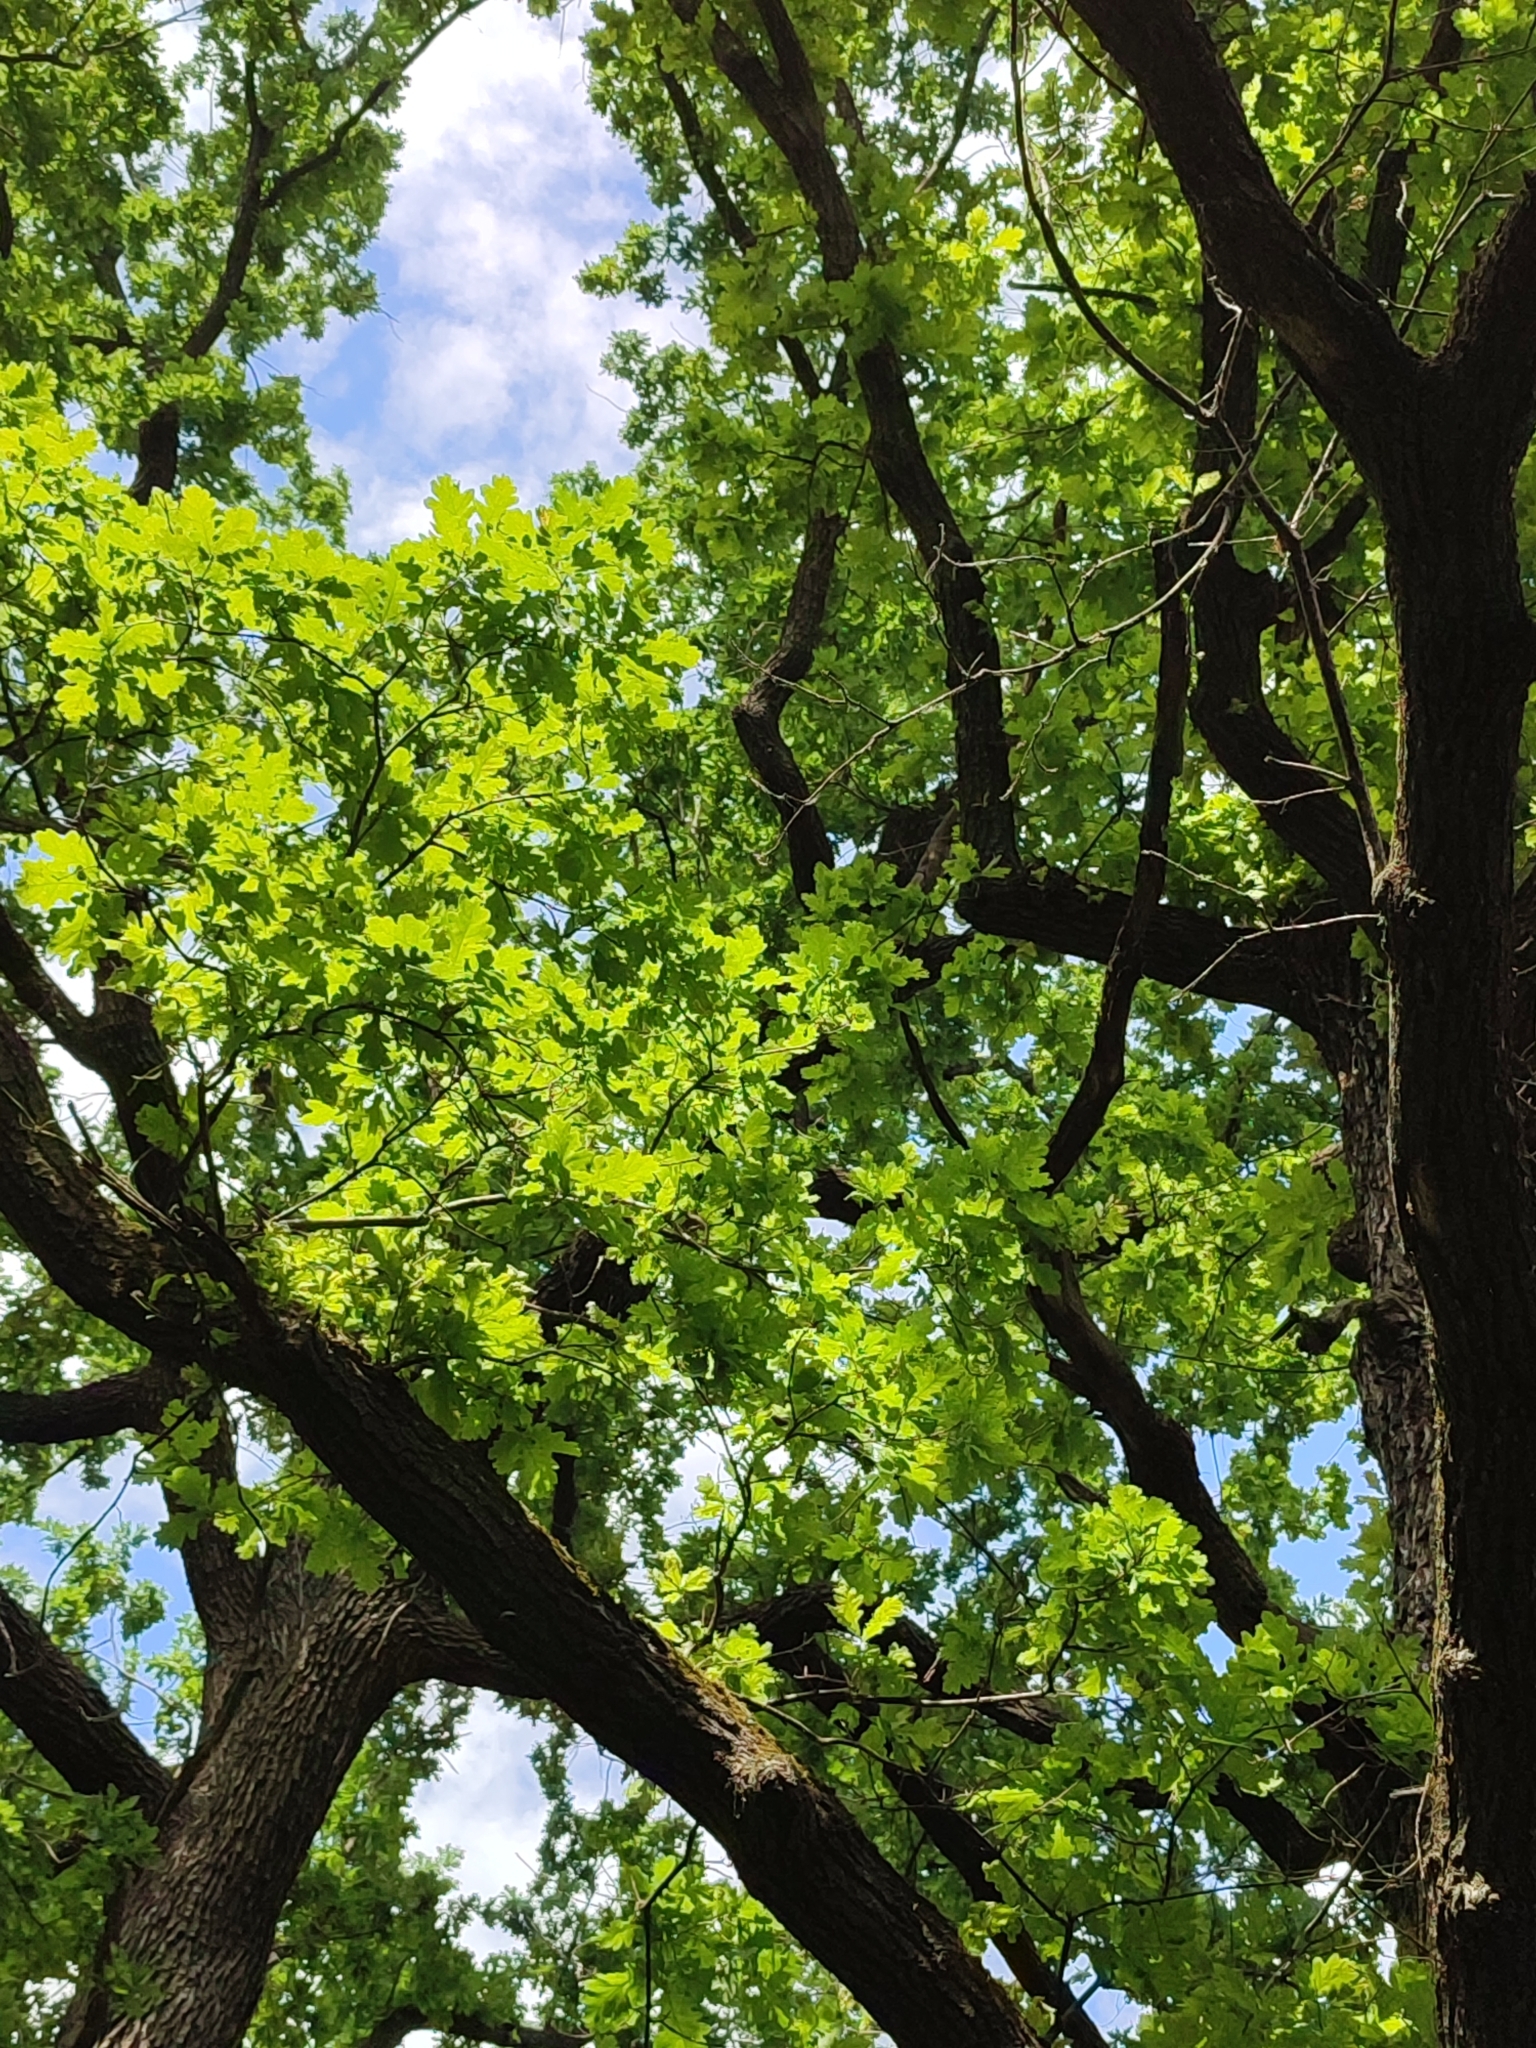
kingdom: Plantae
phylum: Tracheophyta
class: Magnoliopsida
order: Fagales
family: Fagaceae
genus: Quercus
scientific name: Quercus robur
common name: Pedunculate oak
